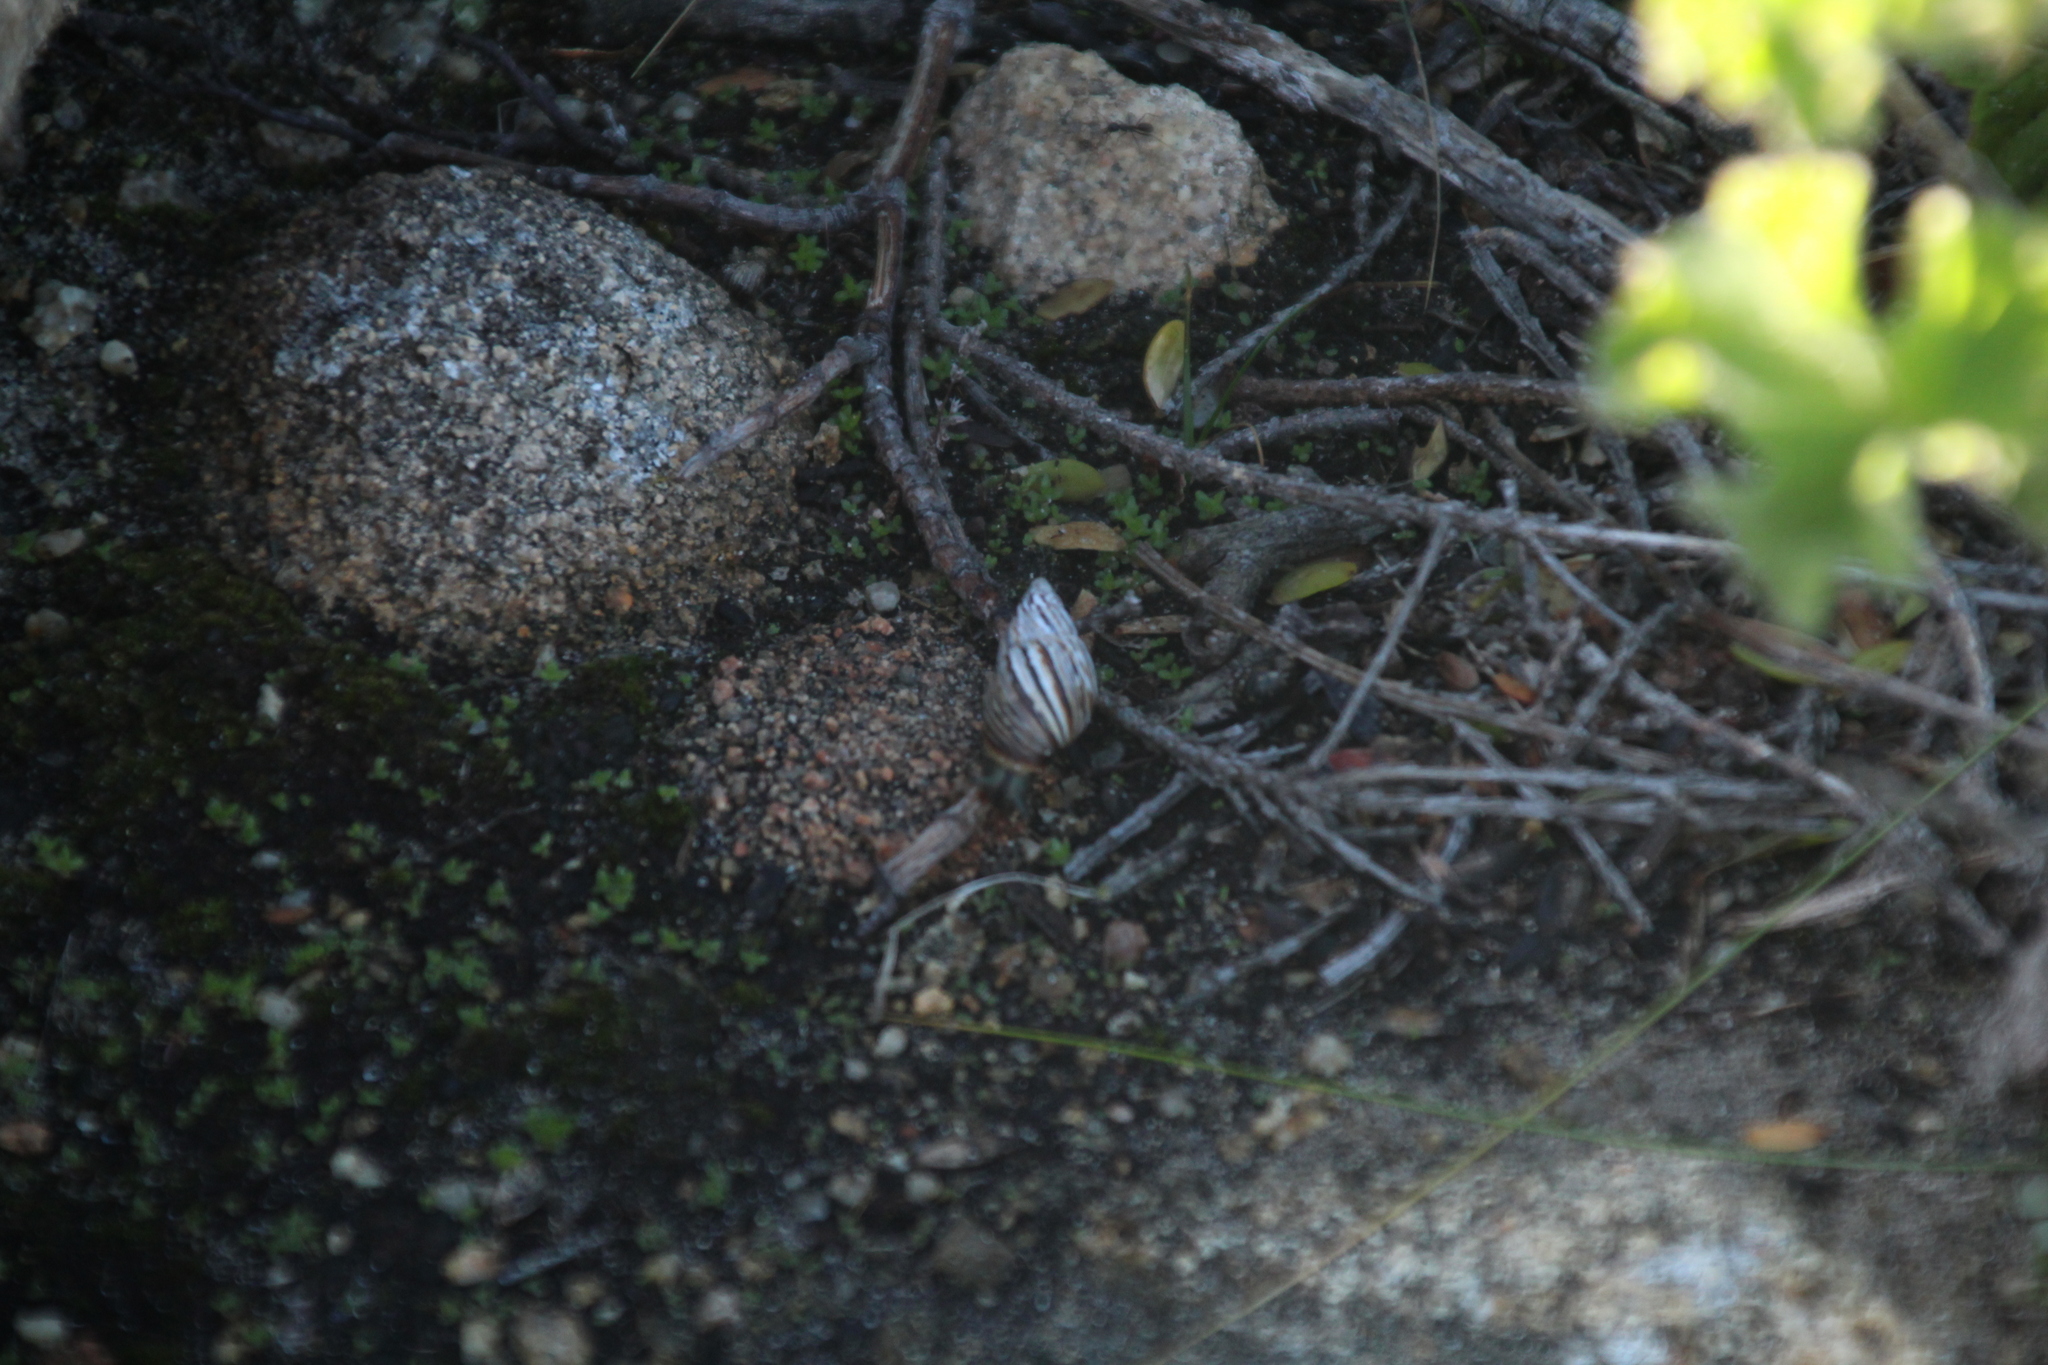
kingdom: Animalia
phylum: Mollusca
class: Gastropoda
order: Stylommatophora
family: Bothriembryontidae
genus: Bothriembryon
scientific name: Bothriembryon kingii
